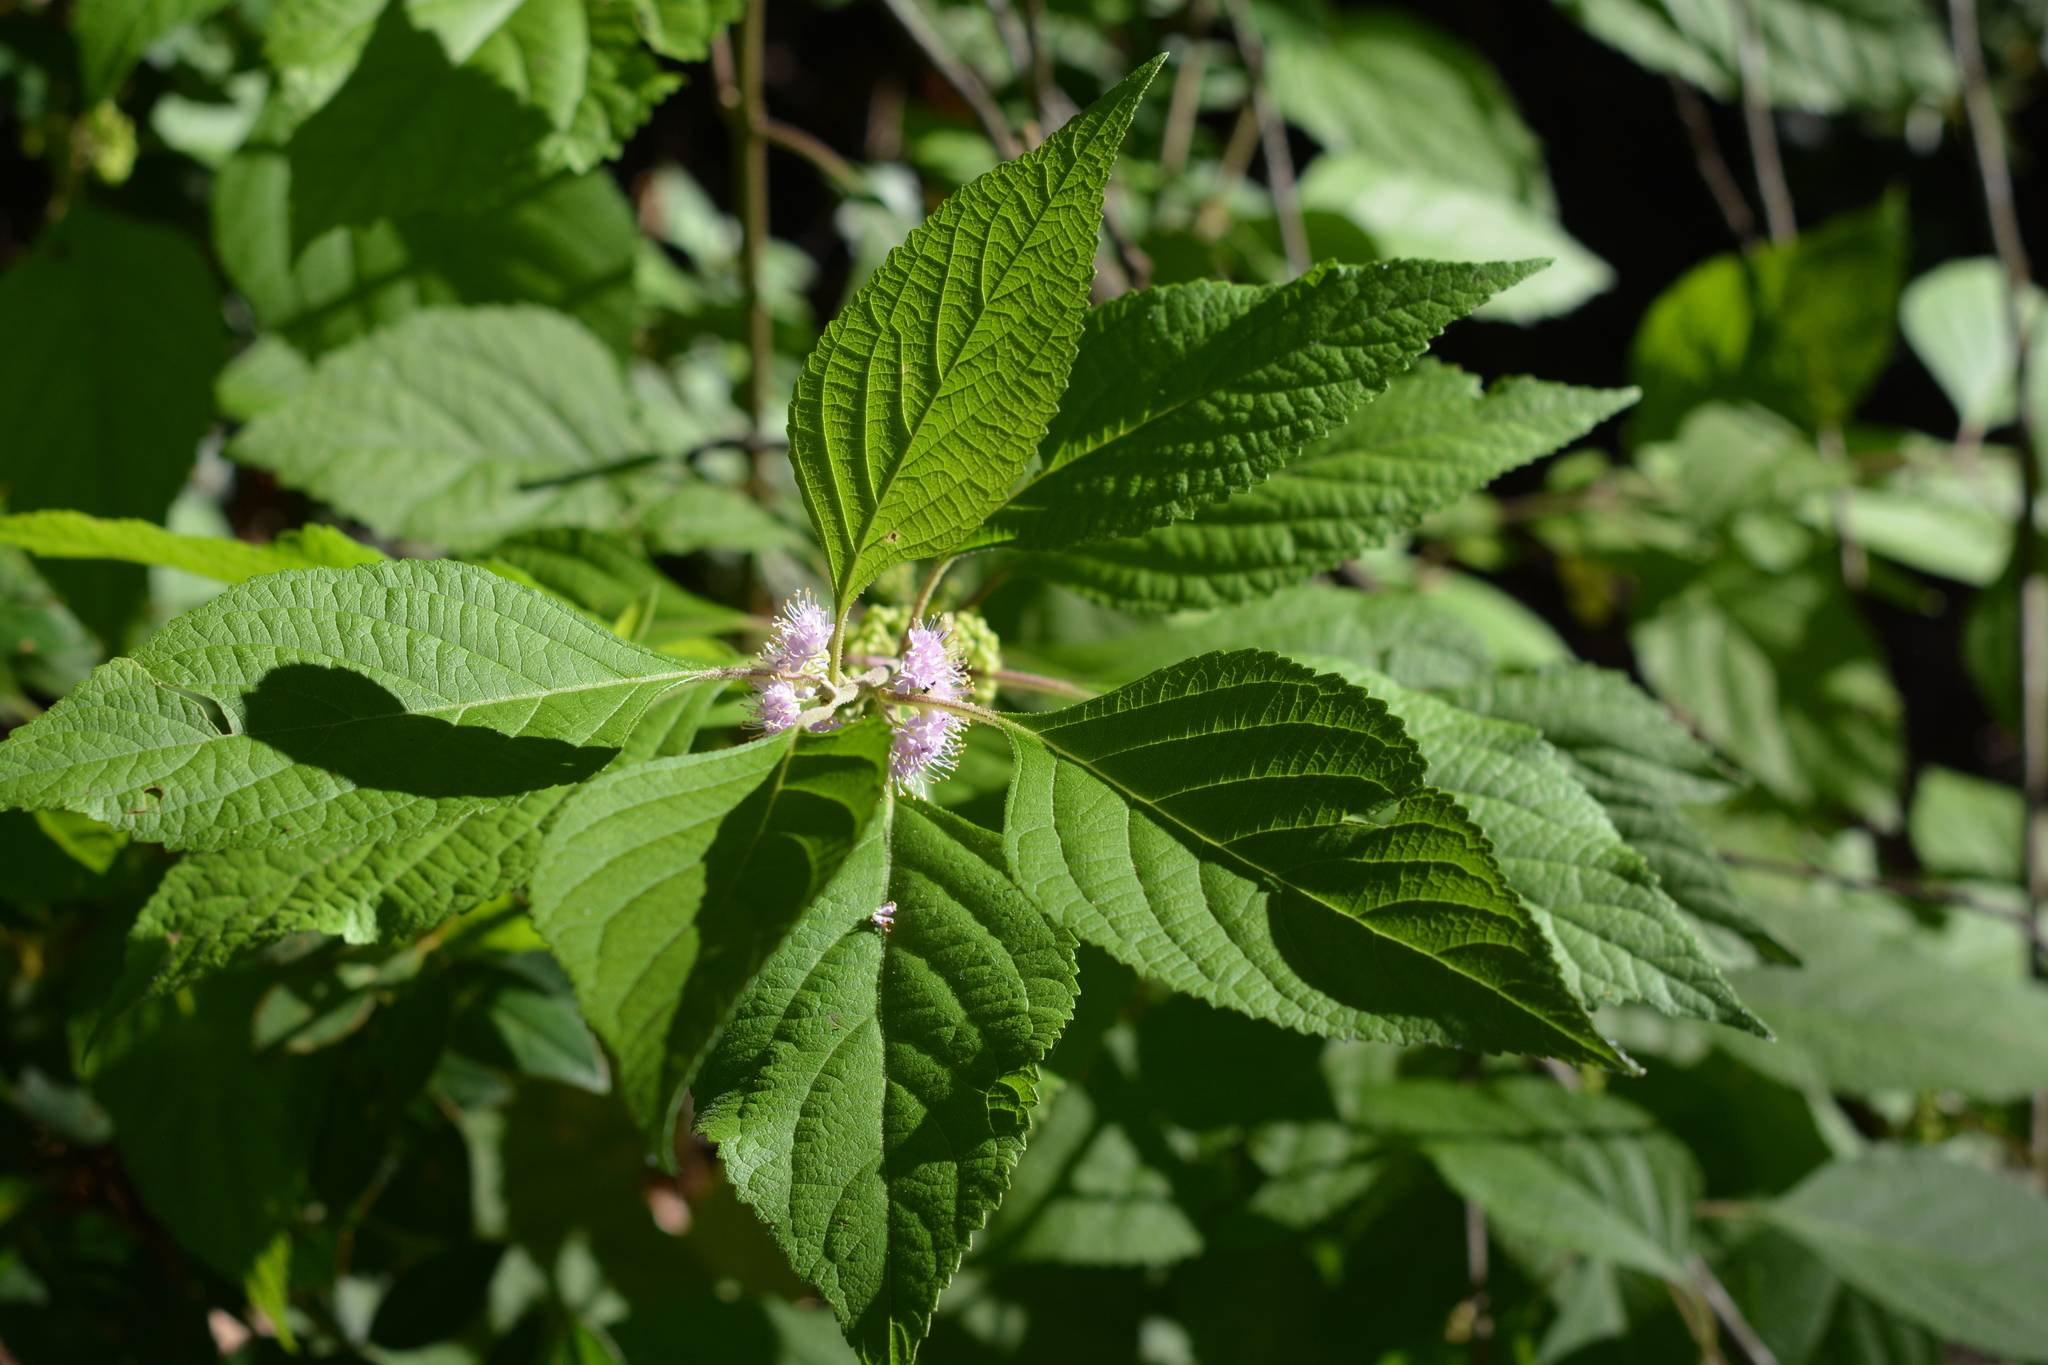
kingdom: Plantae
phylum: Tracheophyta
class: Magnoliopsida
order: Lamiales
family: Lamiaceae
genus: Callicarpa
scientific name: Callicarpa americana
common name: American beautyberry
